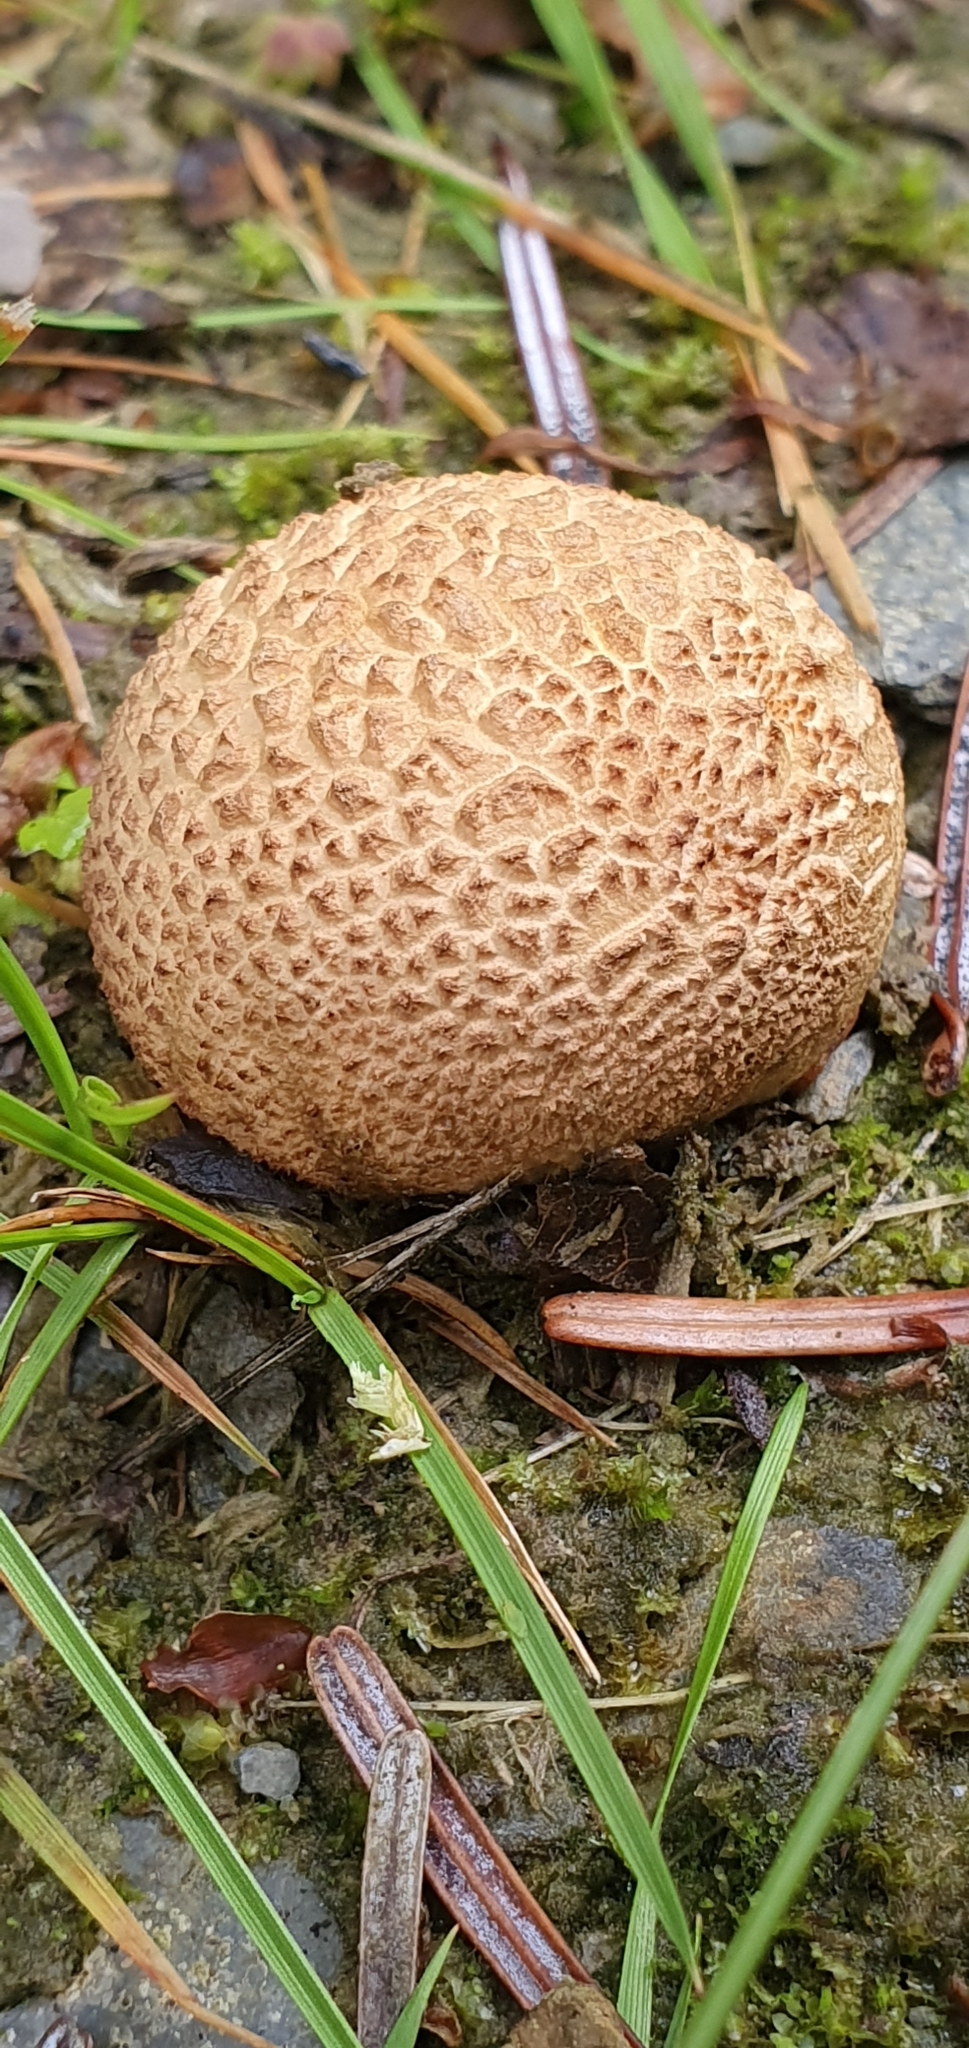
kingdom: Fungi
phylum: Basidiomycota
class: Agaricomycetes
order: Boletales
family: Sclerodermataceae
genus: Scleroderma
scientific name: Scleroderma citrinum
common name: Common earthball
